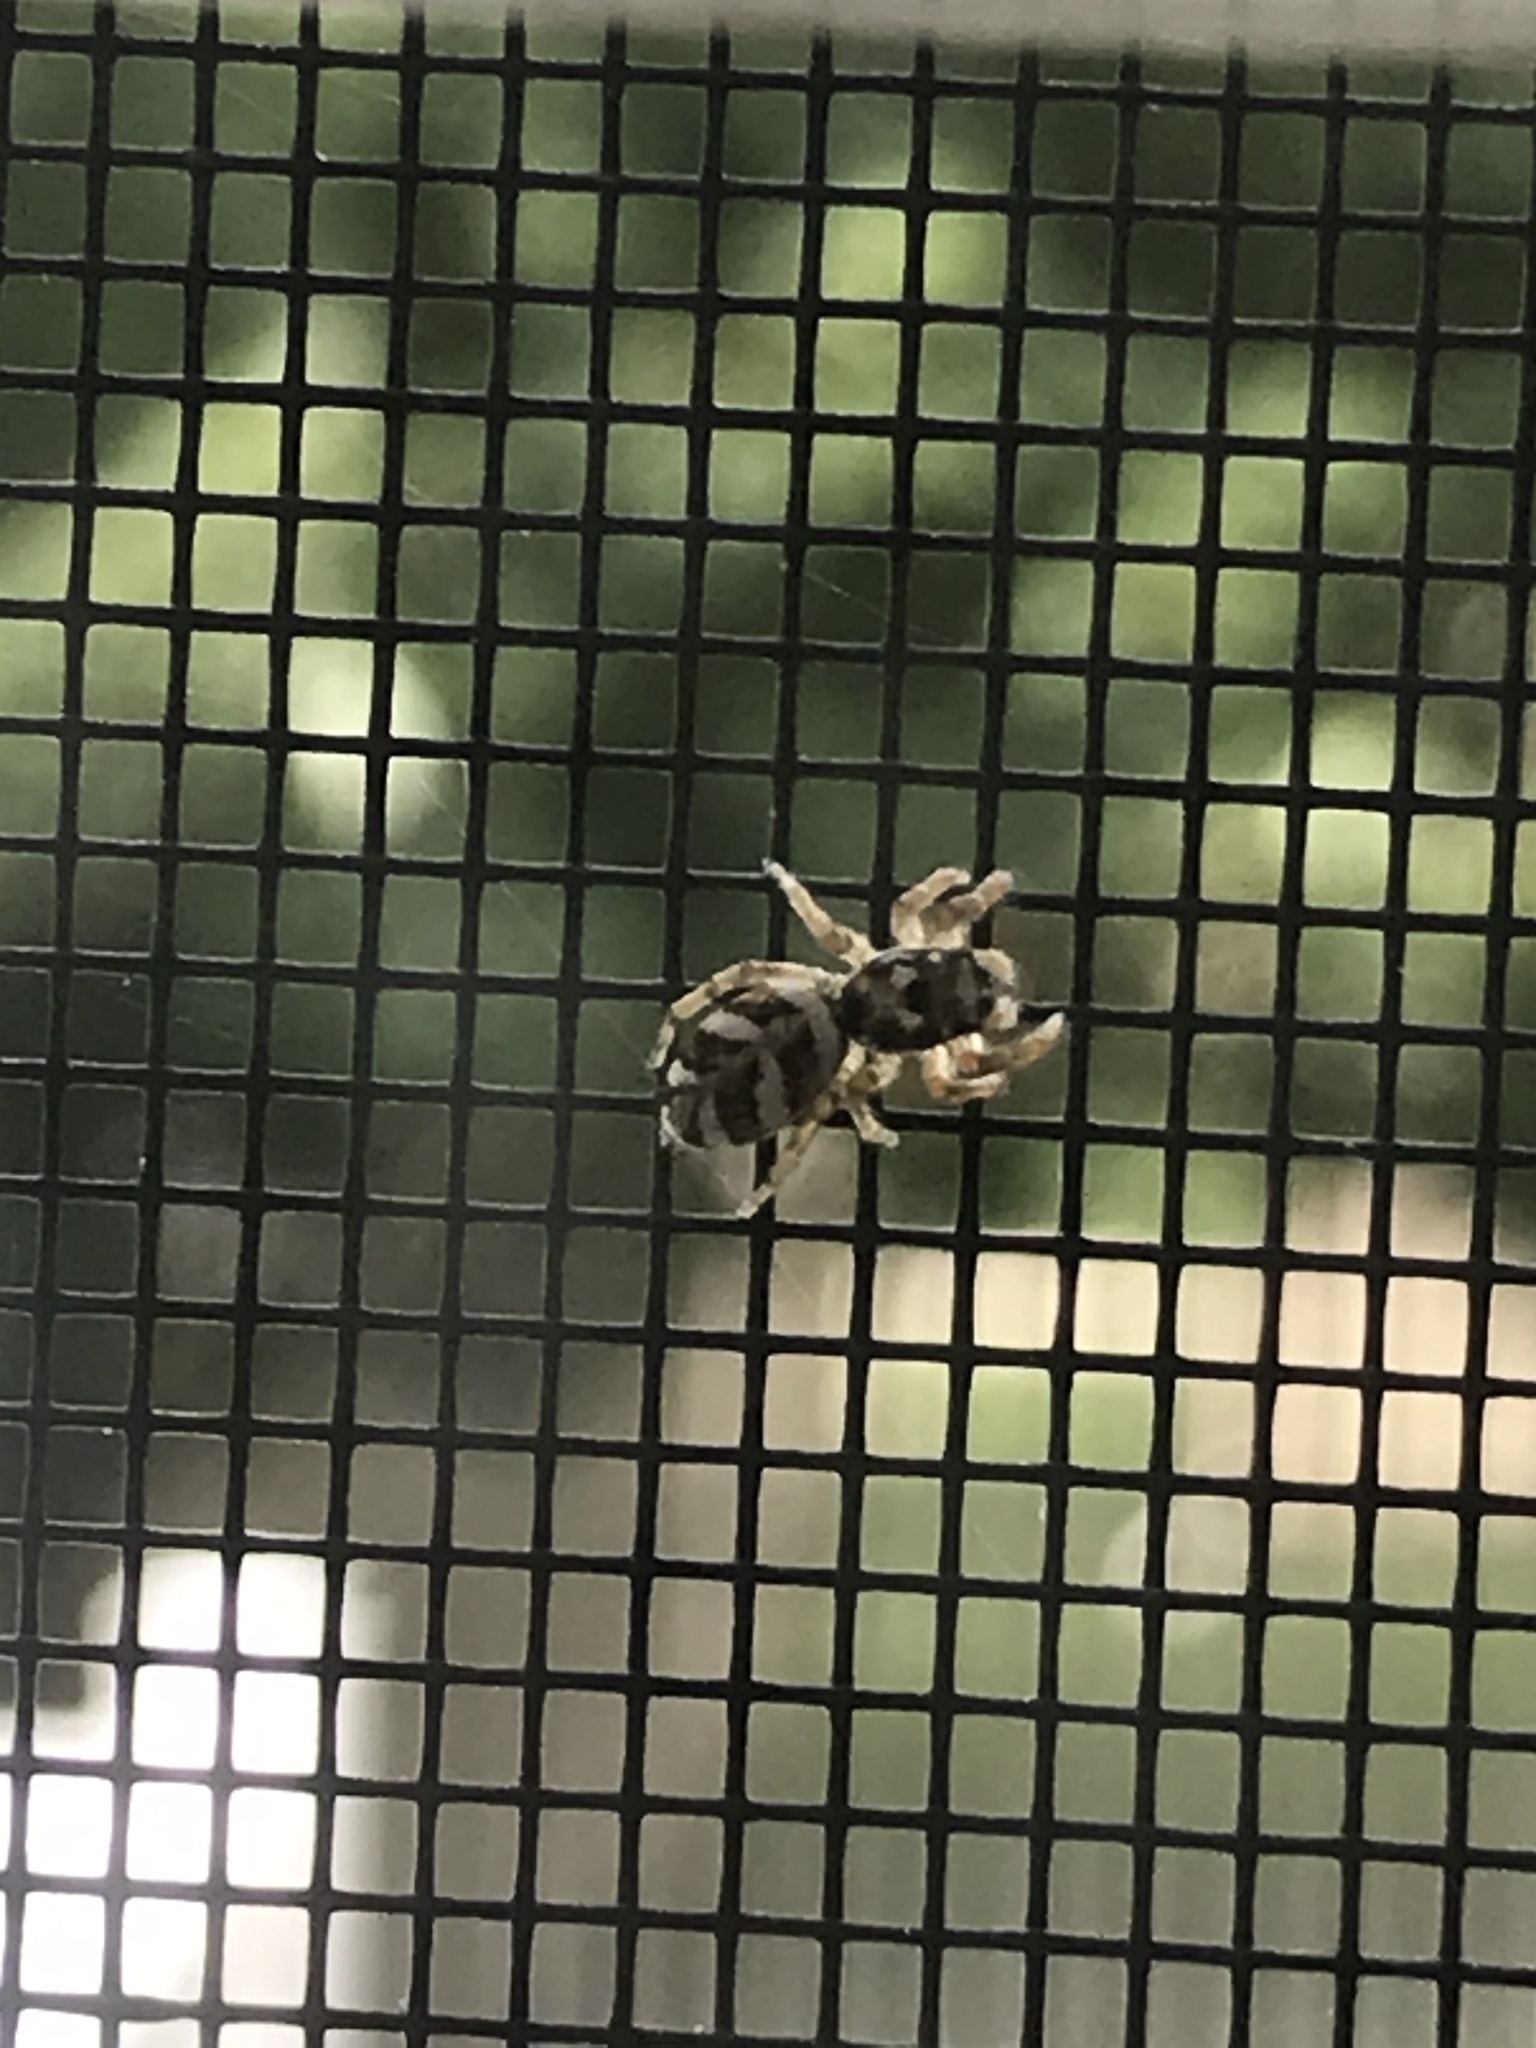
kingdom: Animalia
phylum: Arthropoda
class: Arachnida
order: Araneae
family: Salticidae
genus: Salticus
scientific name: Salticus scenicus
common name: Zebra jumper
